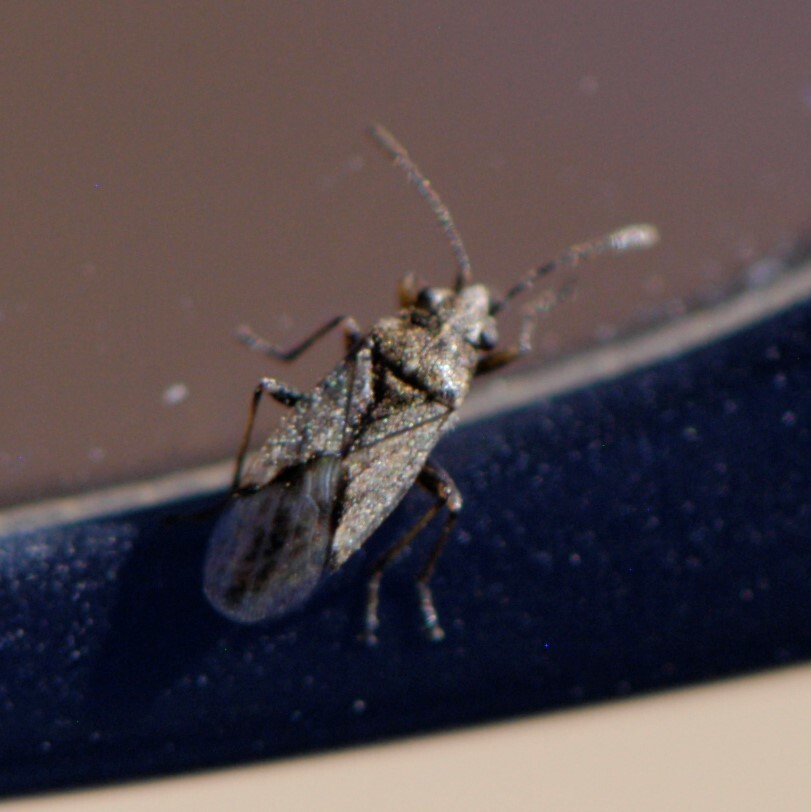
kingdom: Animalia
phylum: Arthropoda
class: Insecta
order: Hemiptera
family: Lygaeidae
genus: Nysius
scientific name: Nysius
